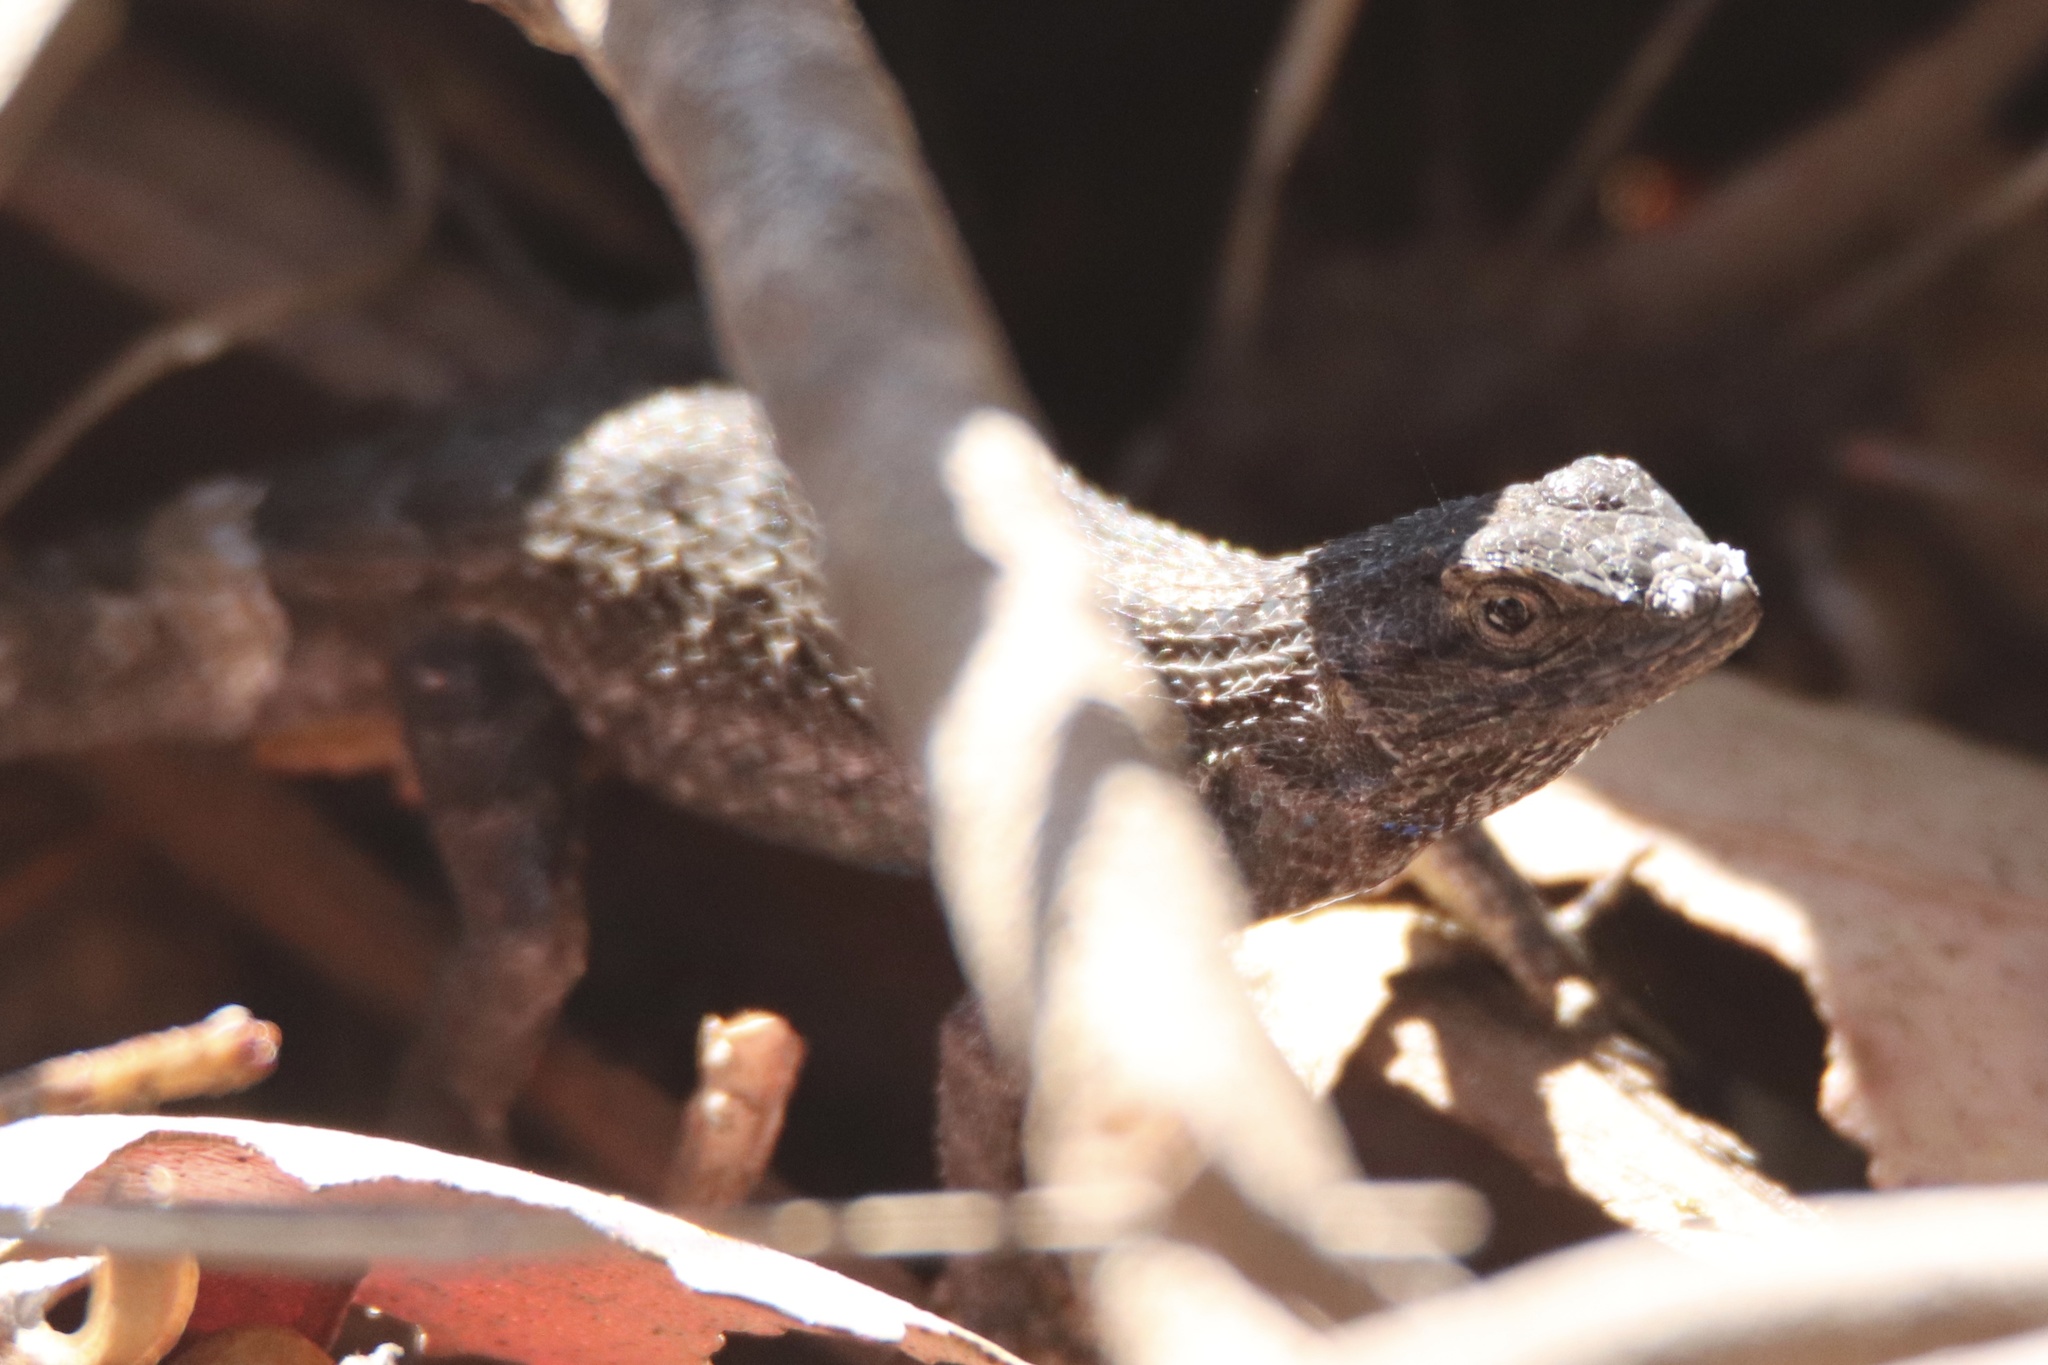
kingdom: Animalia
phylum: Chordata
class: Squamata
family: Phrynosomatidae
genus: Sceloporus
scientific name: Sceloporus occidentalis
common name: Western fence lizard
